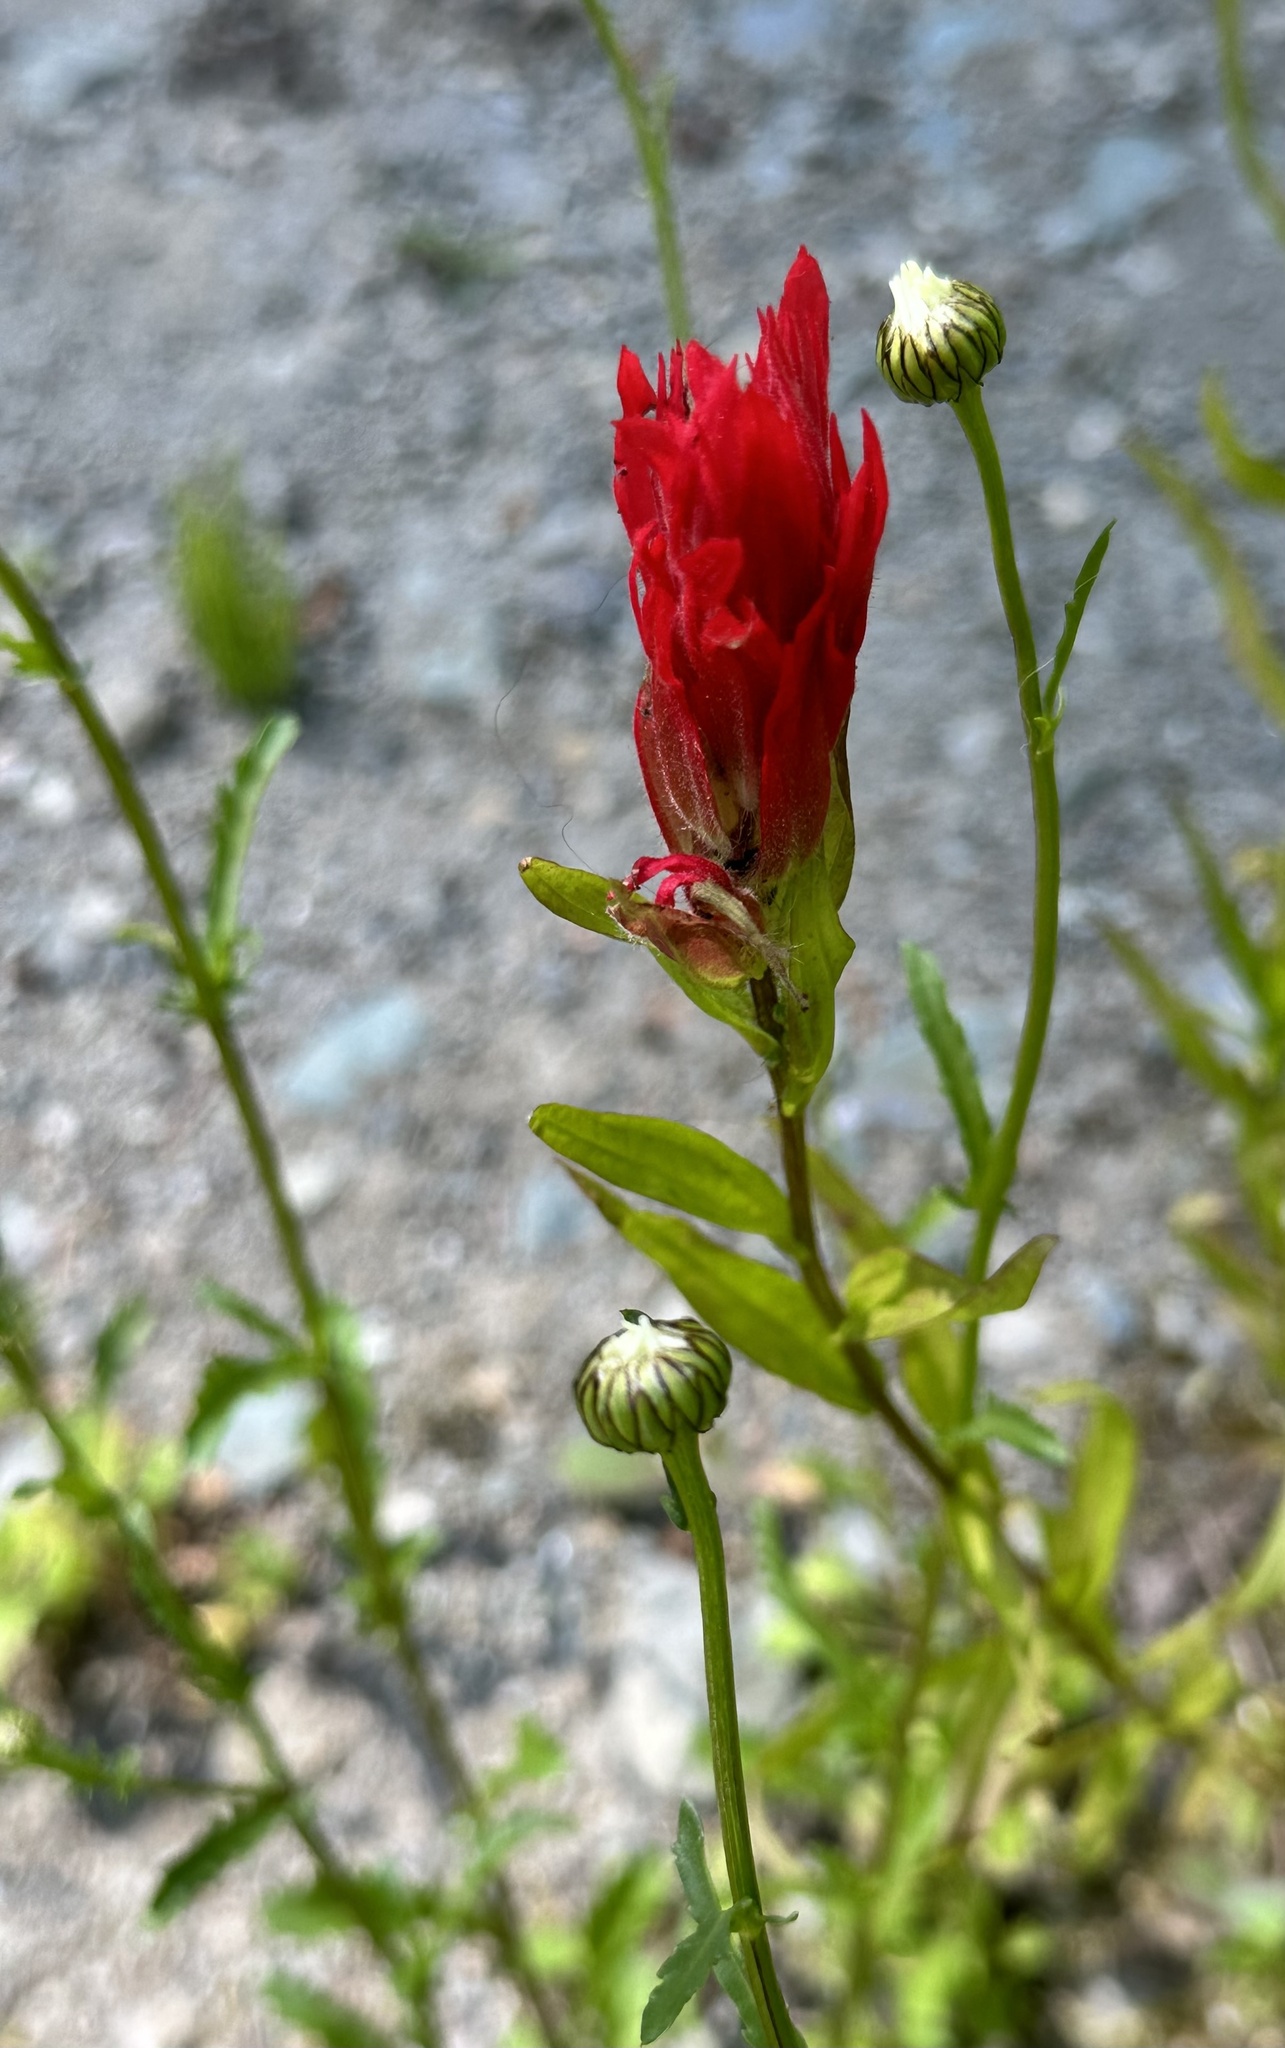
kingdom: Plantae
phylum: Tracheophyta
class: Magnoliopsida
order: Lamiales
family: Orobanchaceae
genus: Castilleja
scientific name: Castilleja miniata
